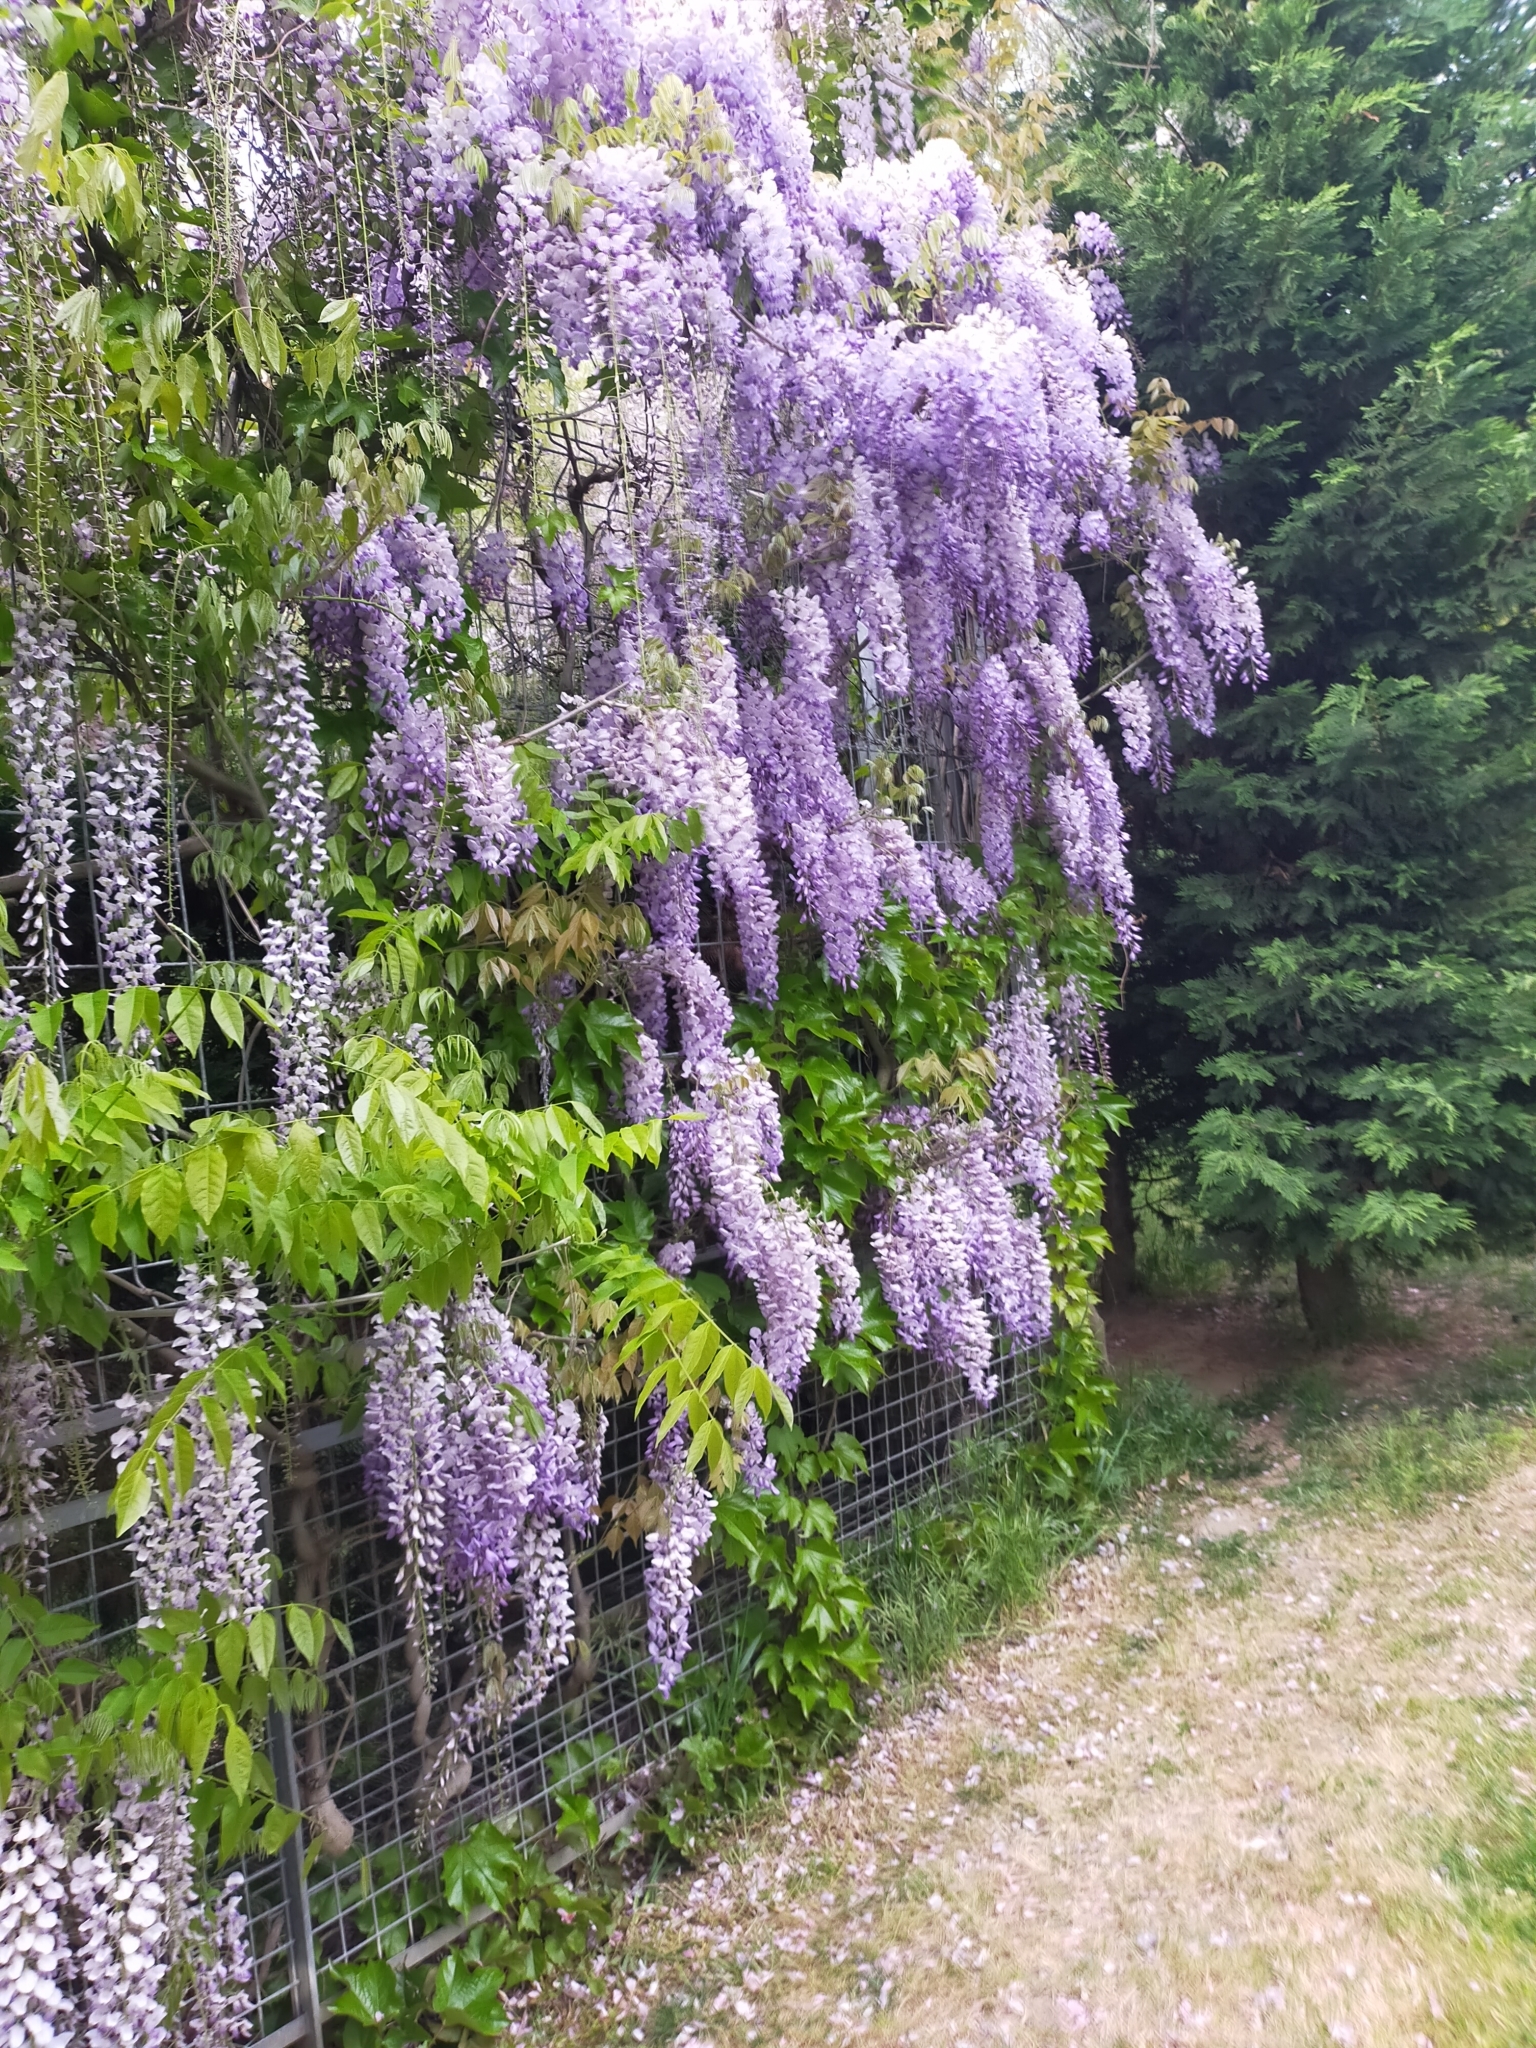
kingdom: Plantae
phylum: Tracheophyta
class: Magnoliopsida
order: Fabales
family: Fabaceae
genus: Wisteria
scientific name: Wisteria sinensis
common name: Chinese wisteria
